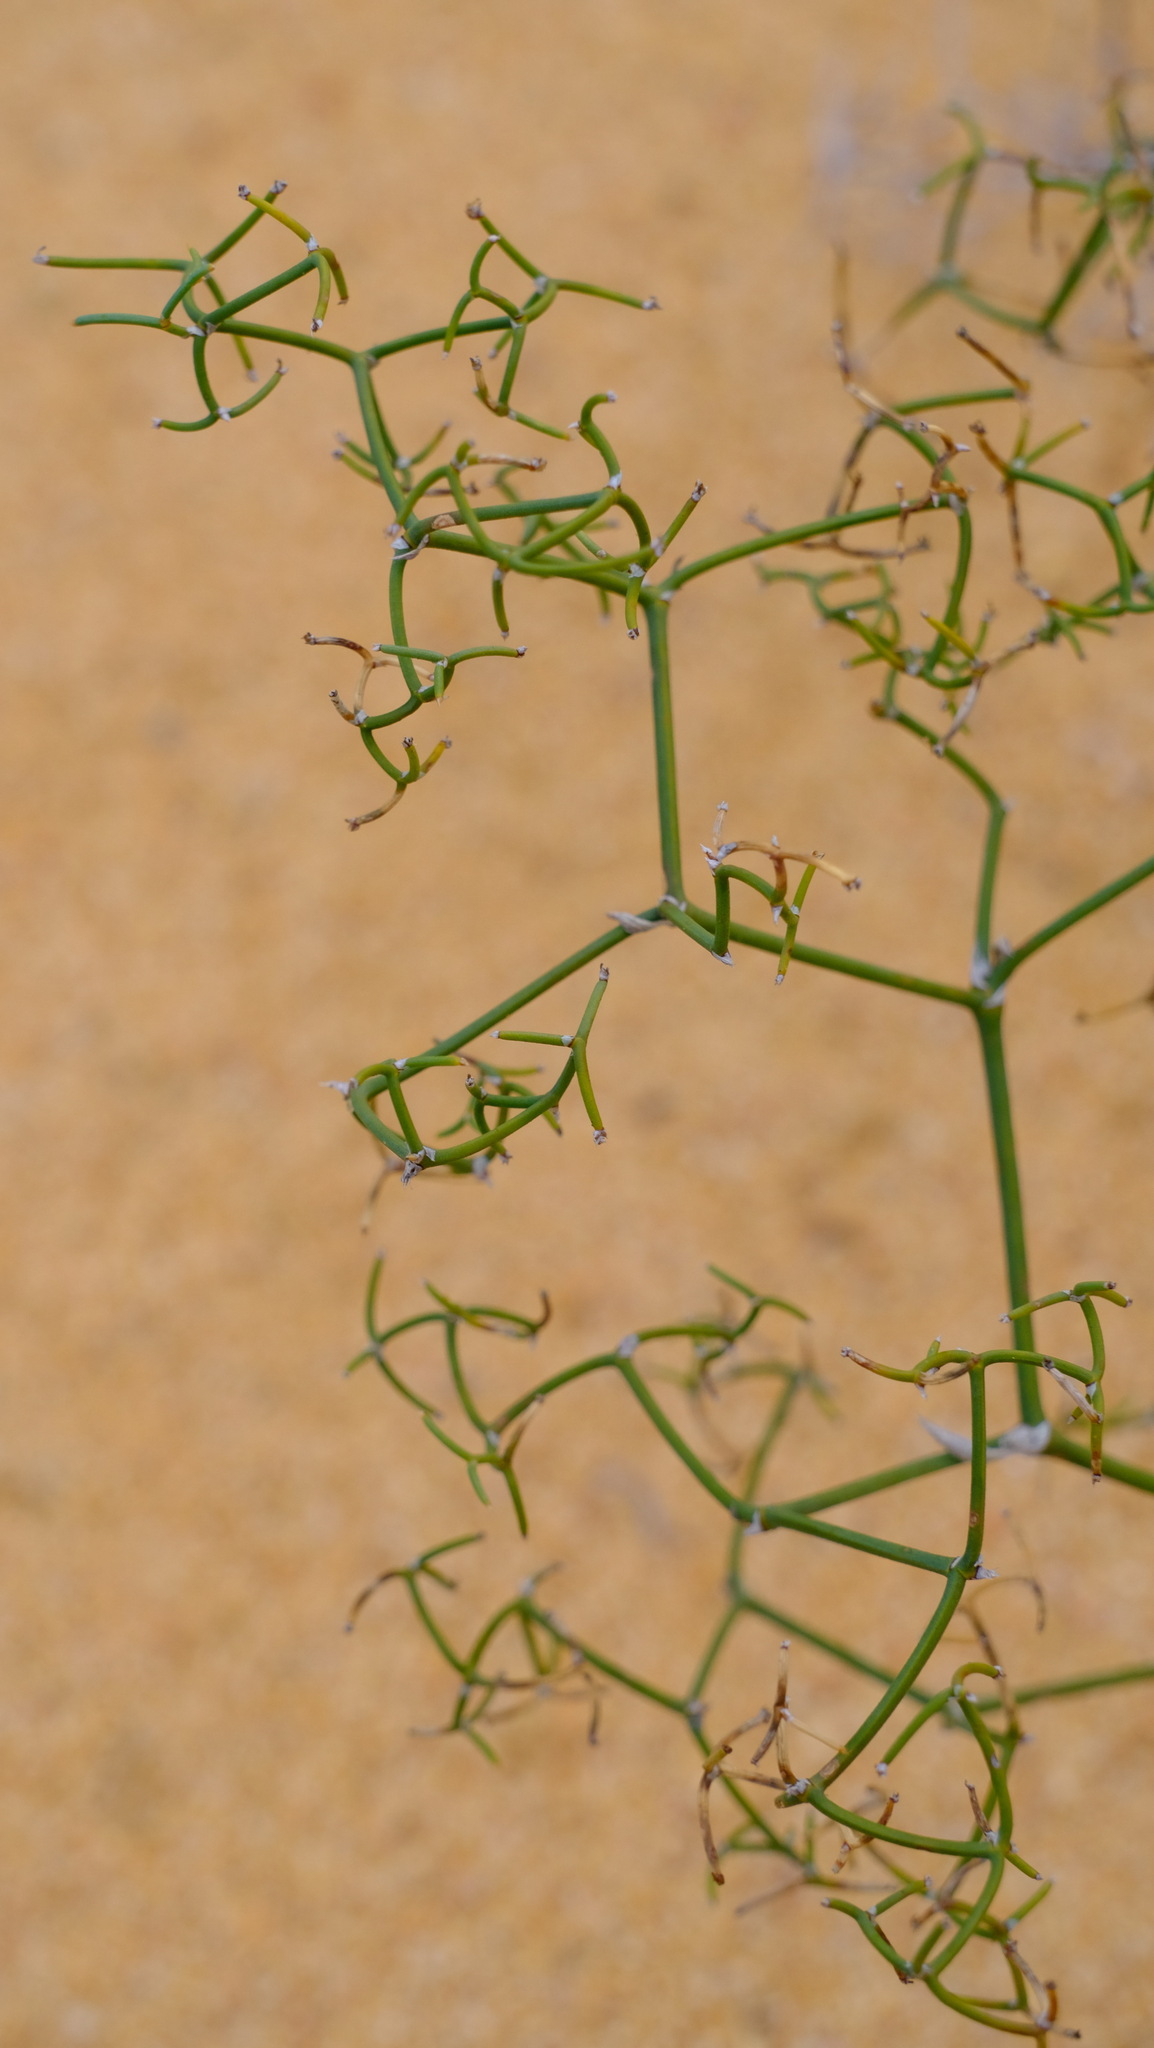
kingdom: Plantae
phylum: Tracheophyta
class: Liliopsida
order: Asparagales
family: Asphodelaceae
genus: Corynotheca
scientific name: Corynotheca dichotoma
